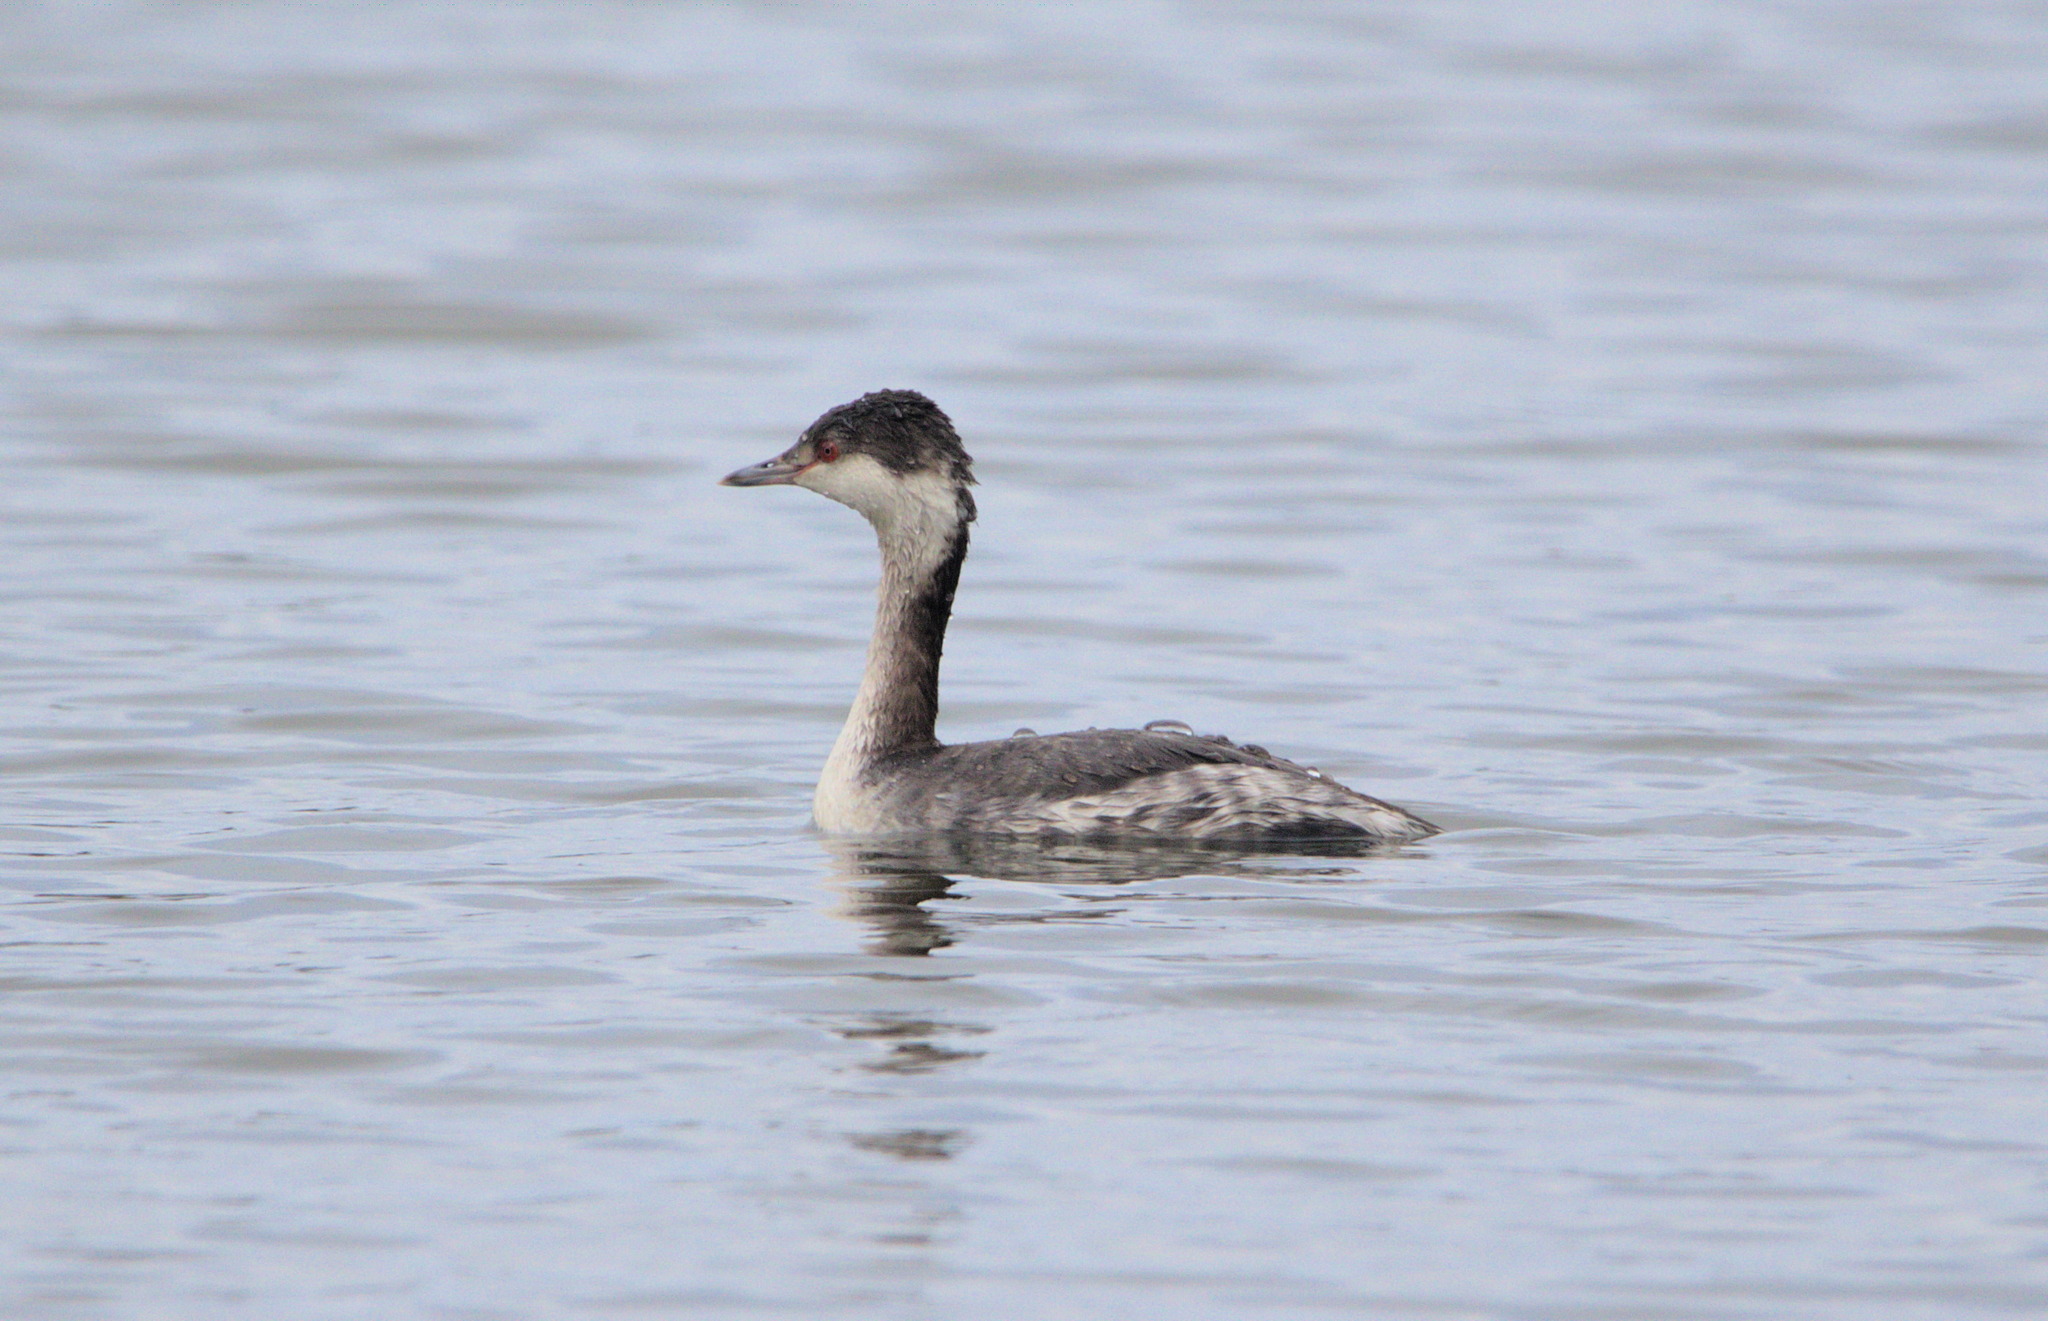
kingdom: Animalia
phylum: Chordata
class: Aves
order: Podicipediformes
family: Podicipedidae
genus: Podiceps
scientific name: Podiceps auritus
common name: Horned grebe
